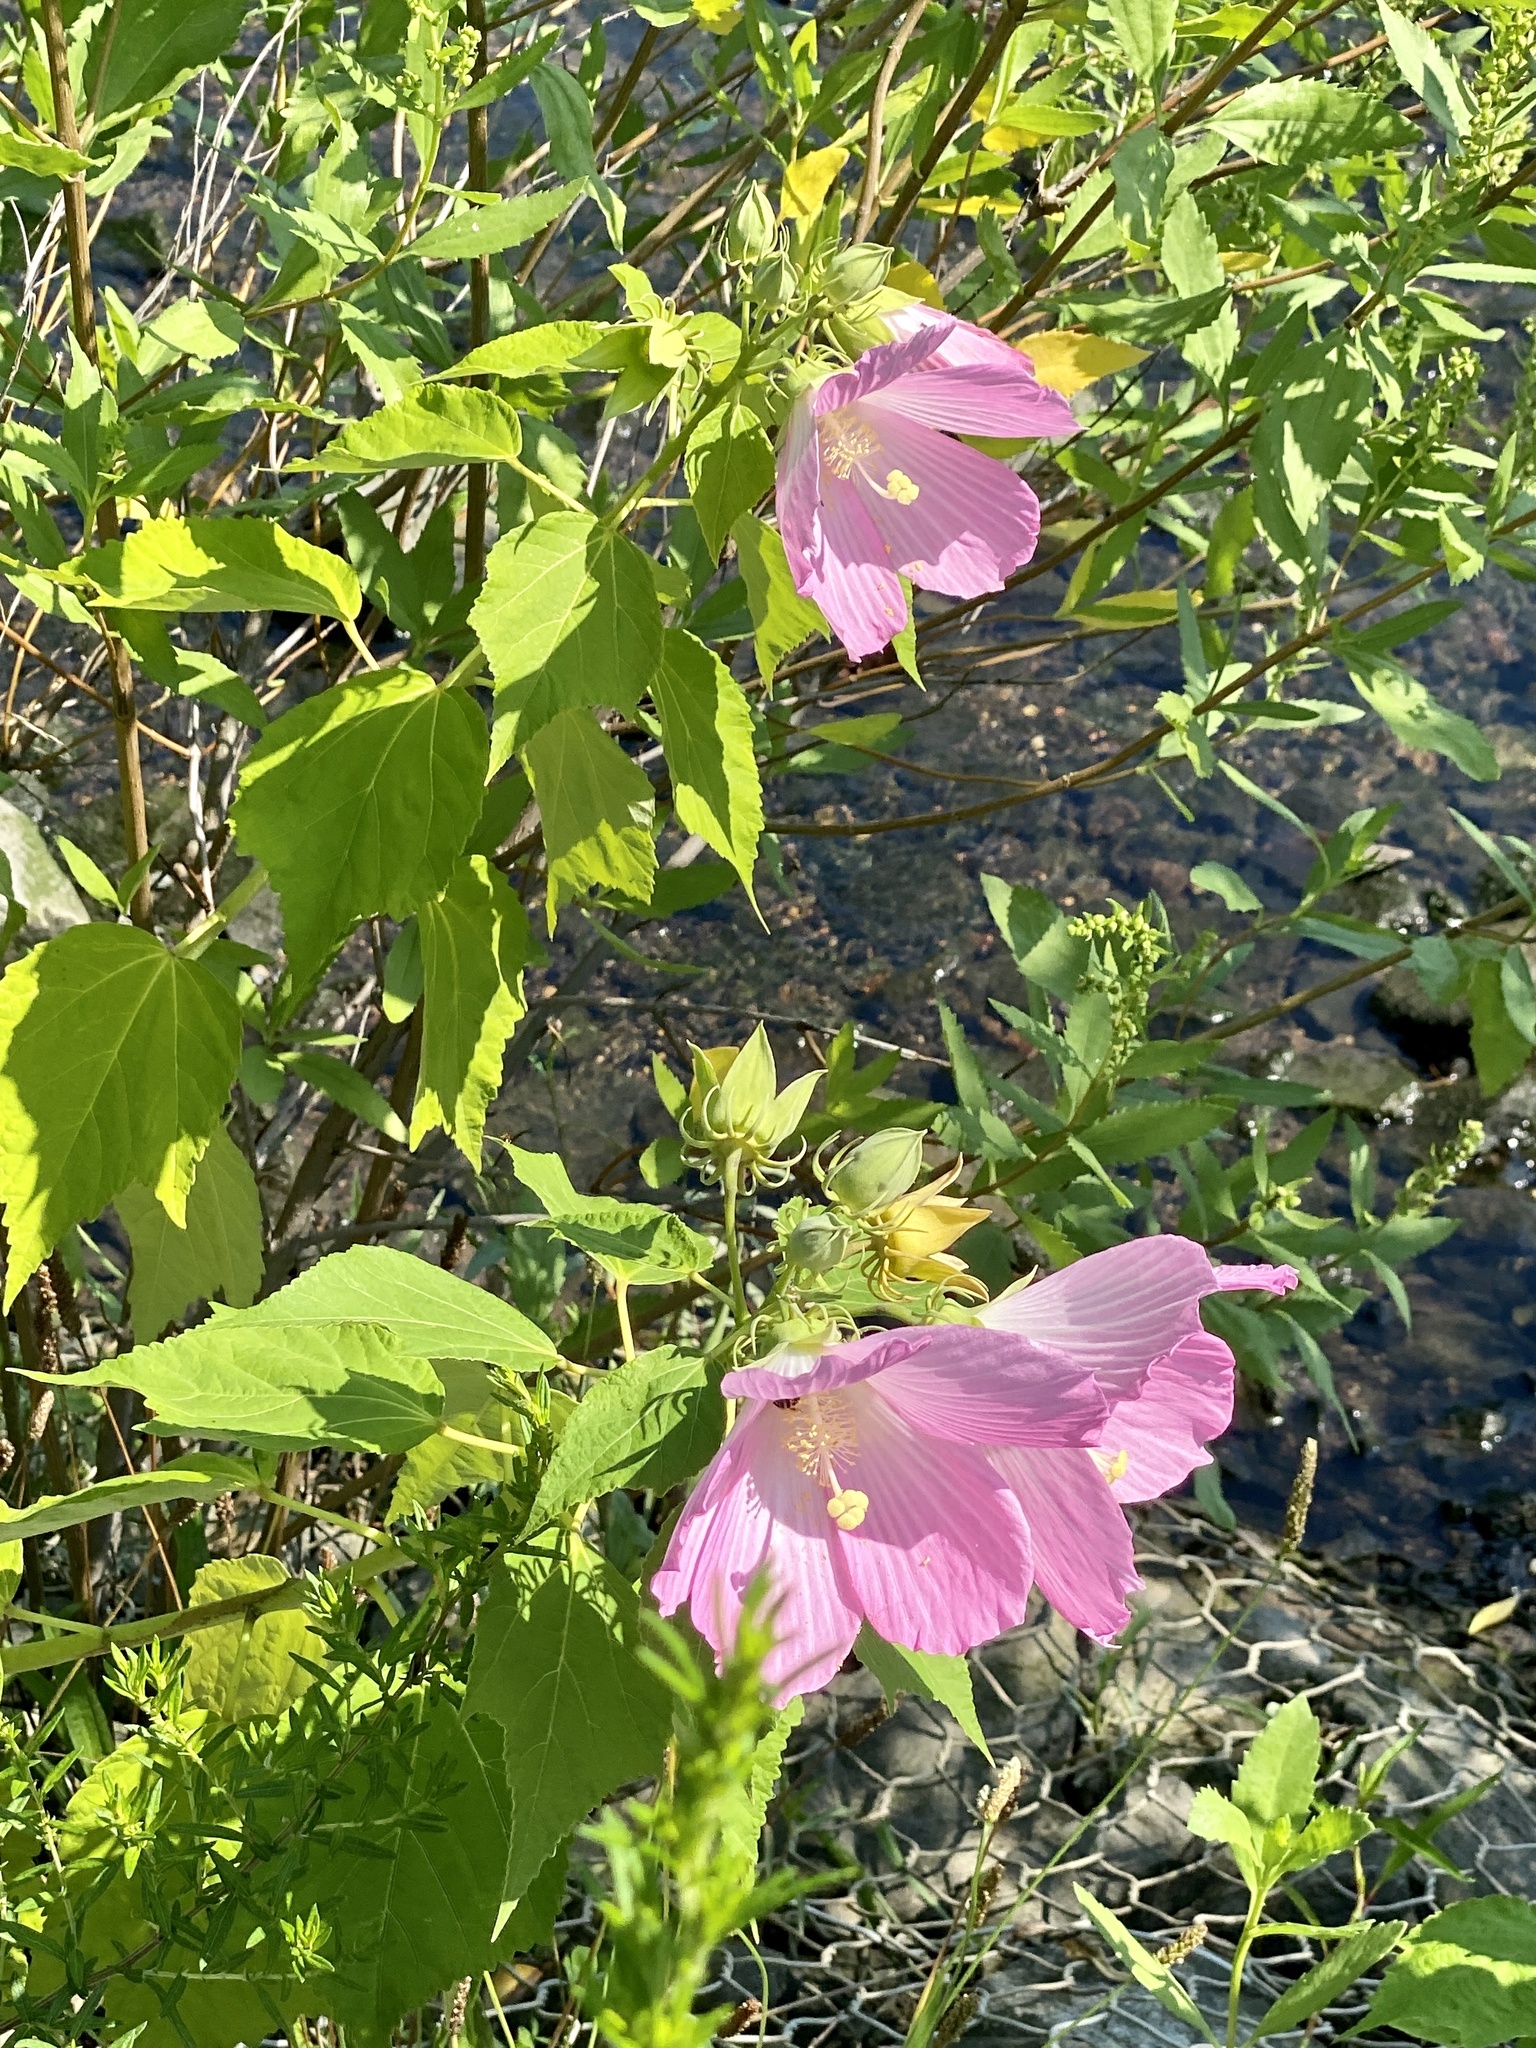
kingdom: Plantae
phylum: Tracheophyta
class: Magnoliopsida
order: Malvales
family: Malvaceae
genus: Hibiscus
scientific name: Hibiscus moscheutos
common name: Common rose-mallow
